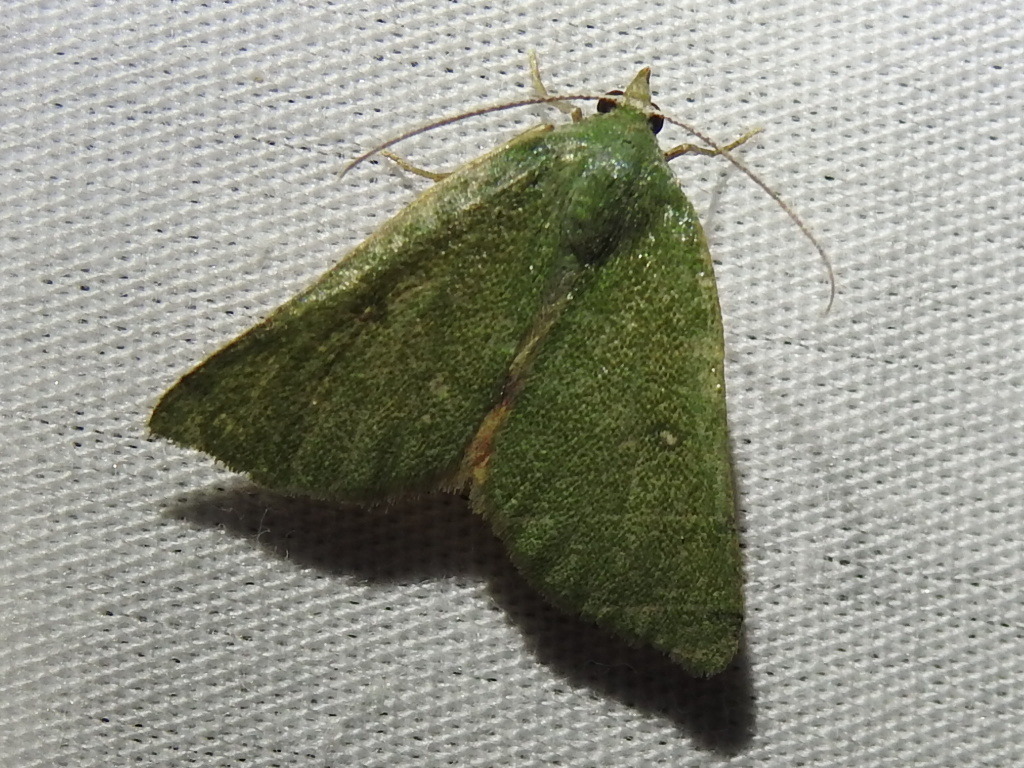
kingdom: Animalia
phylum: Arthropoda
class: Insecta
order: Lepidoptera
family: Geometridae
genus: Chloraspilates
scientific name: Chloraspilates bicoloraria
